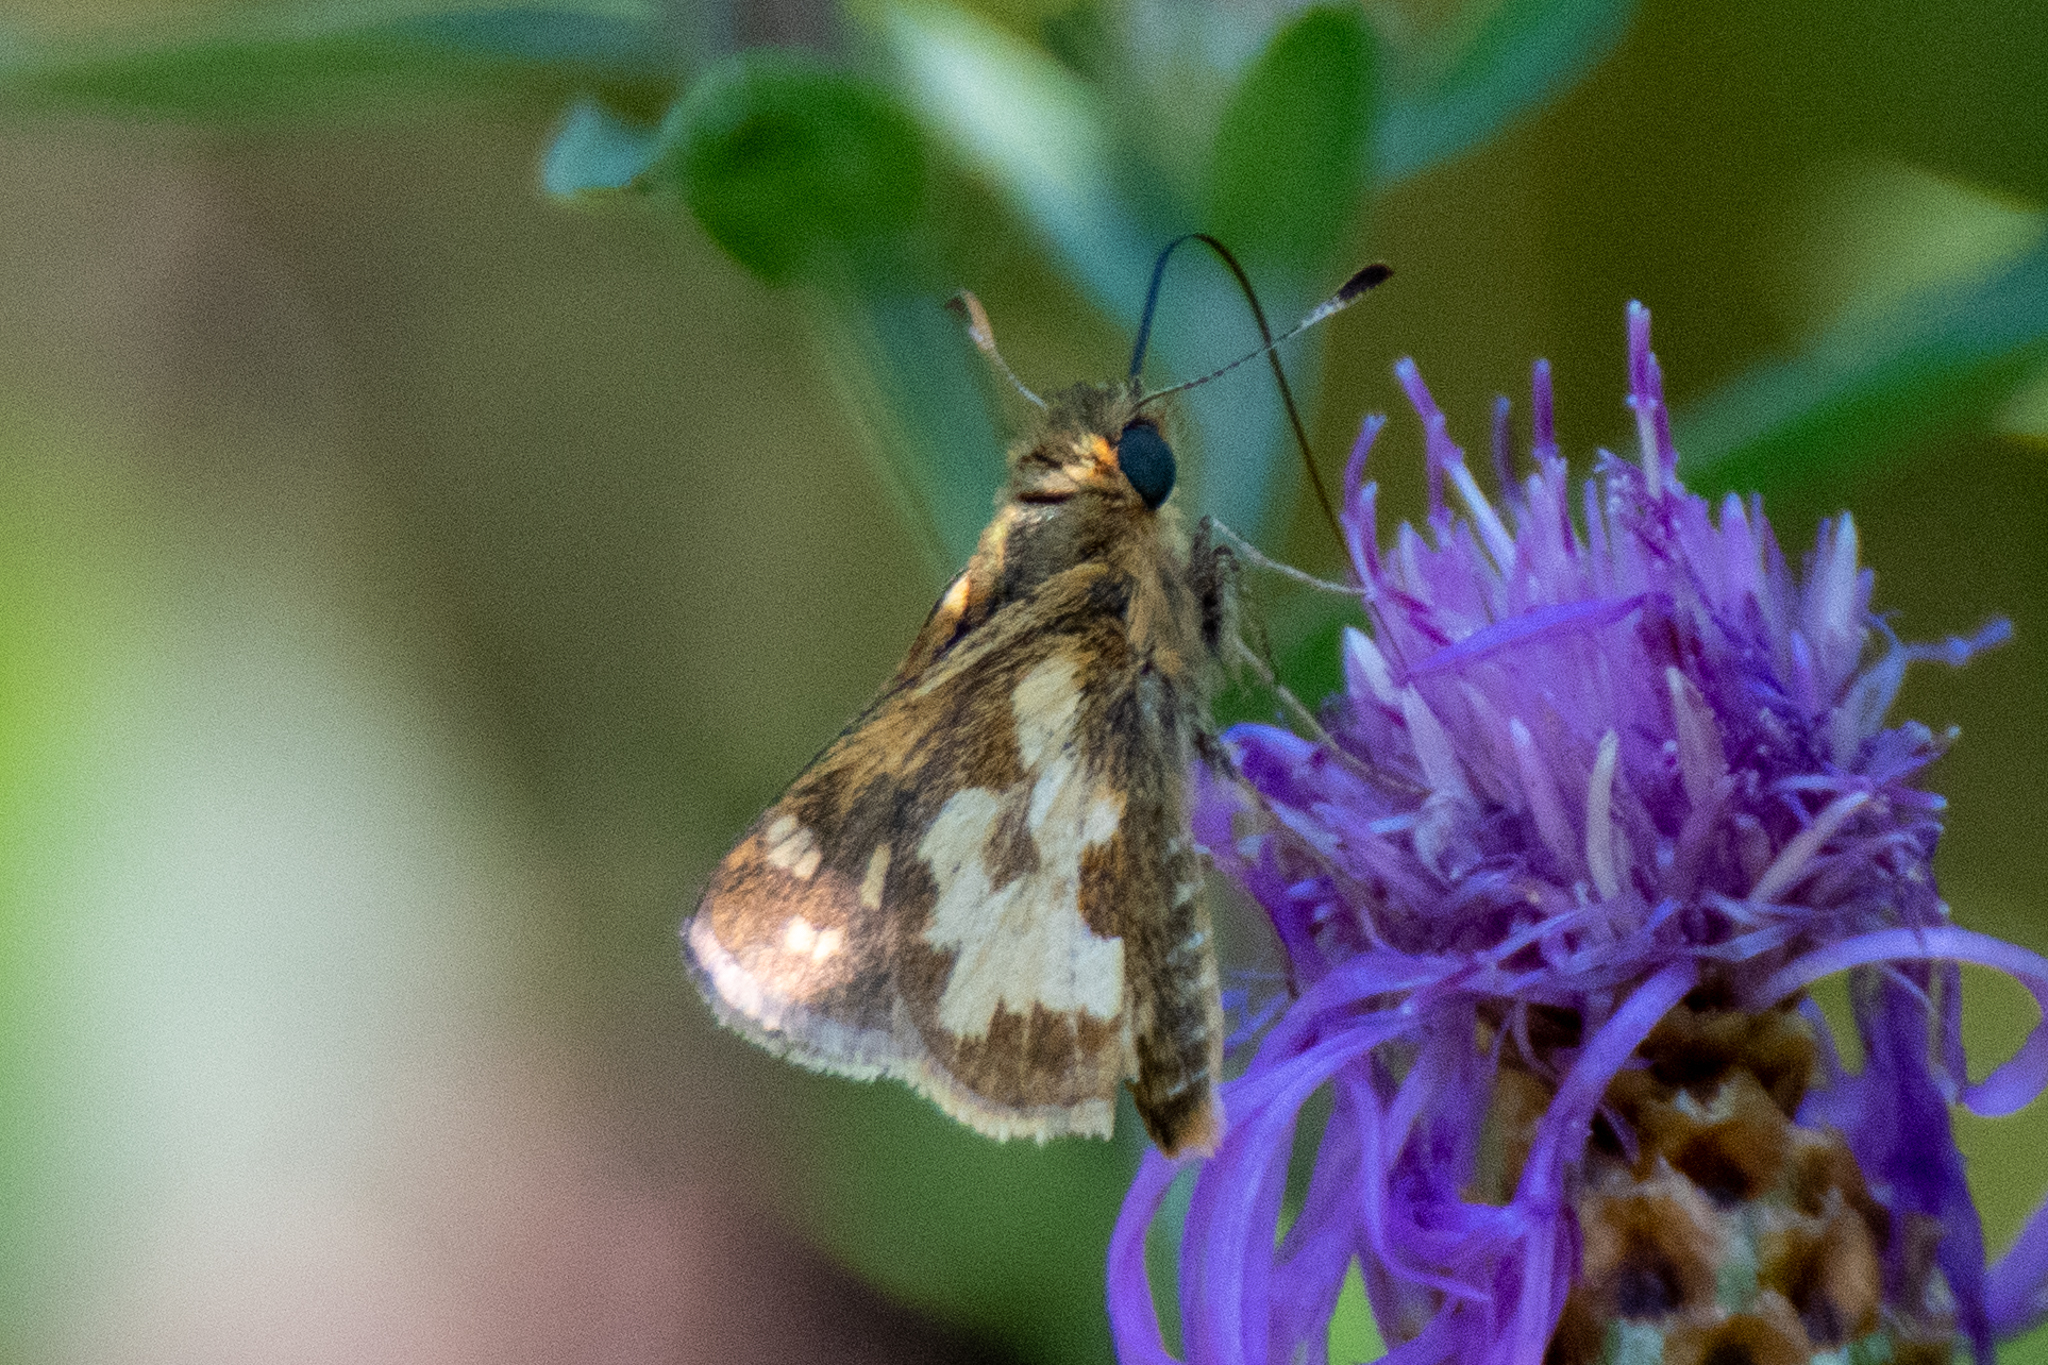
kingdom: Animalia
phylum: Arthropoda
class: Insecta
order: Lepidoptera
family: Hesperiidae
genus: Polites
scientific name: Polites coras
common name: Peck's skipper
